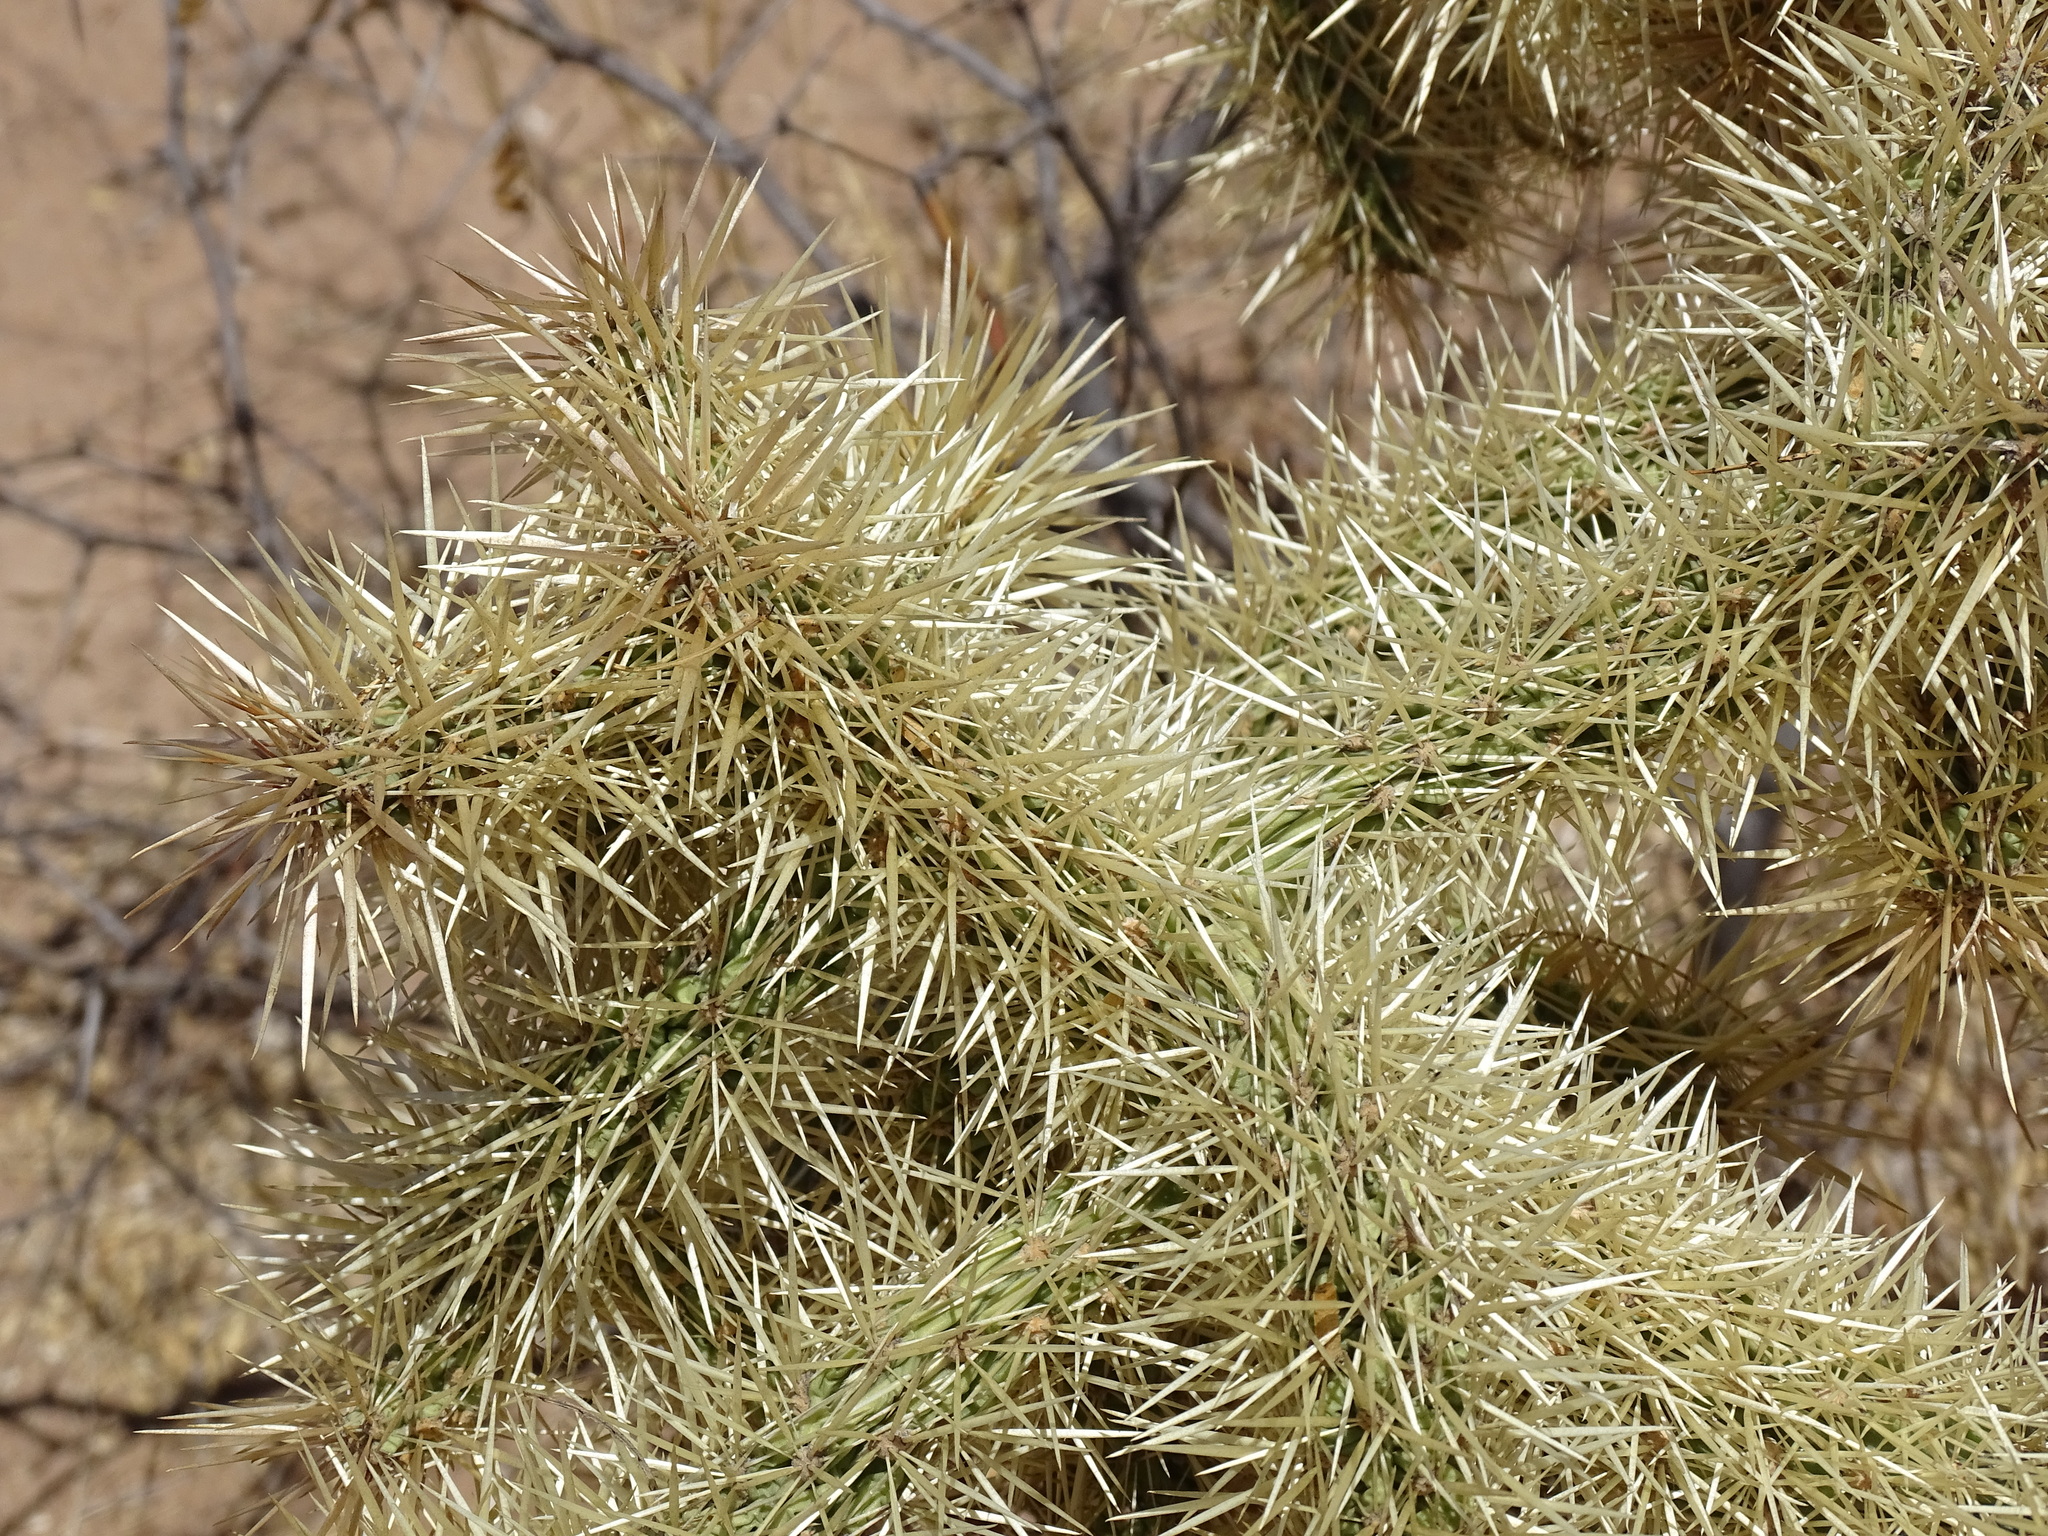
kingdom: Plantae
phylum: Tracheophyta
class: Magnoliopsida
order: Caryophyllales
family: Cactaceae
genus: Cylindropuntia
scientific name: Cylindropuntia fulgida
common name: Jumping cholla
